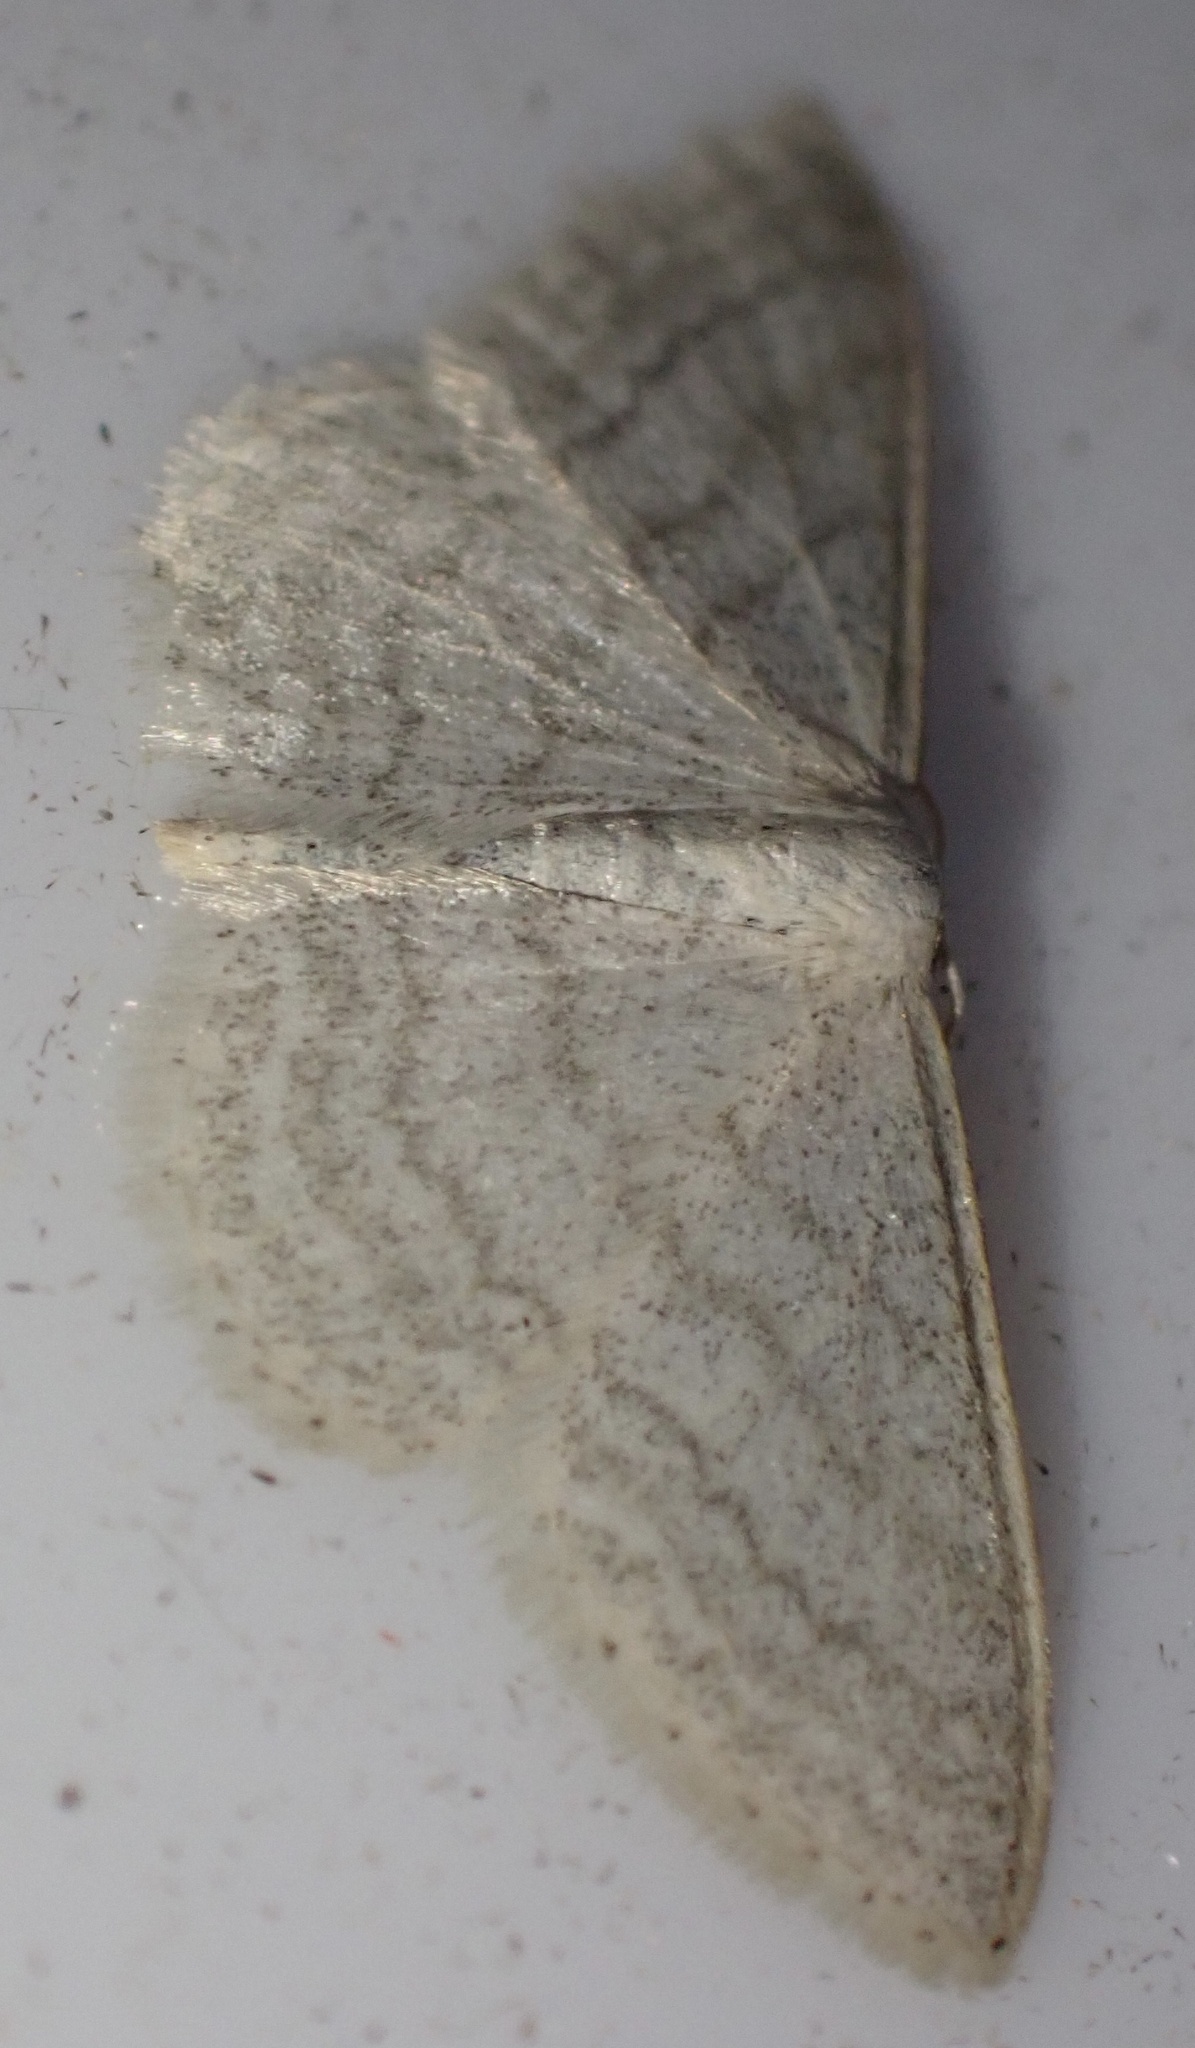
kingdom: Animalia
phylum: Arthropoda
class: Insecta
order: Lepidoptera
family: Geometridae
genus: Idaea
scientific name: Idaea subsericeata
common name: Satin wave
